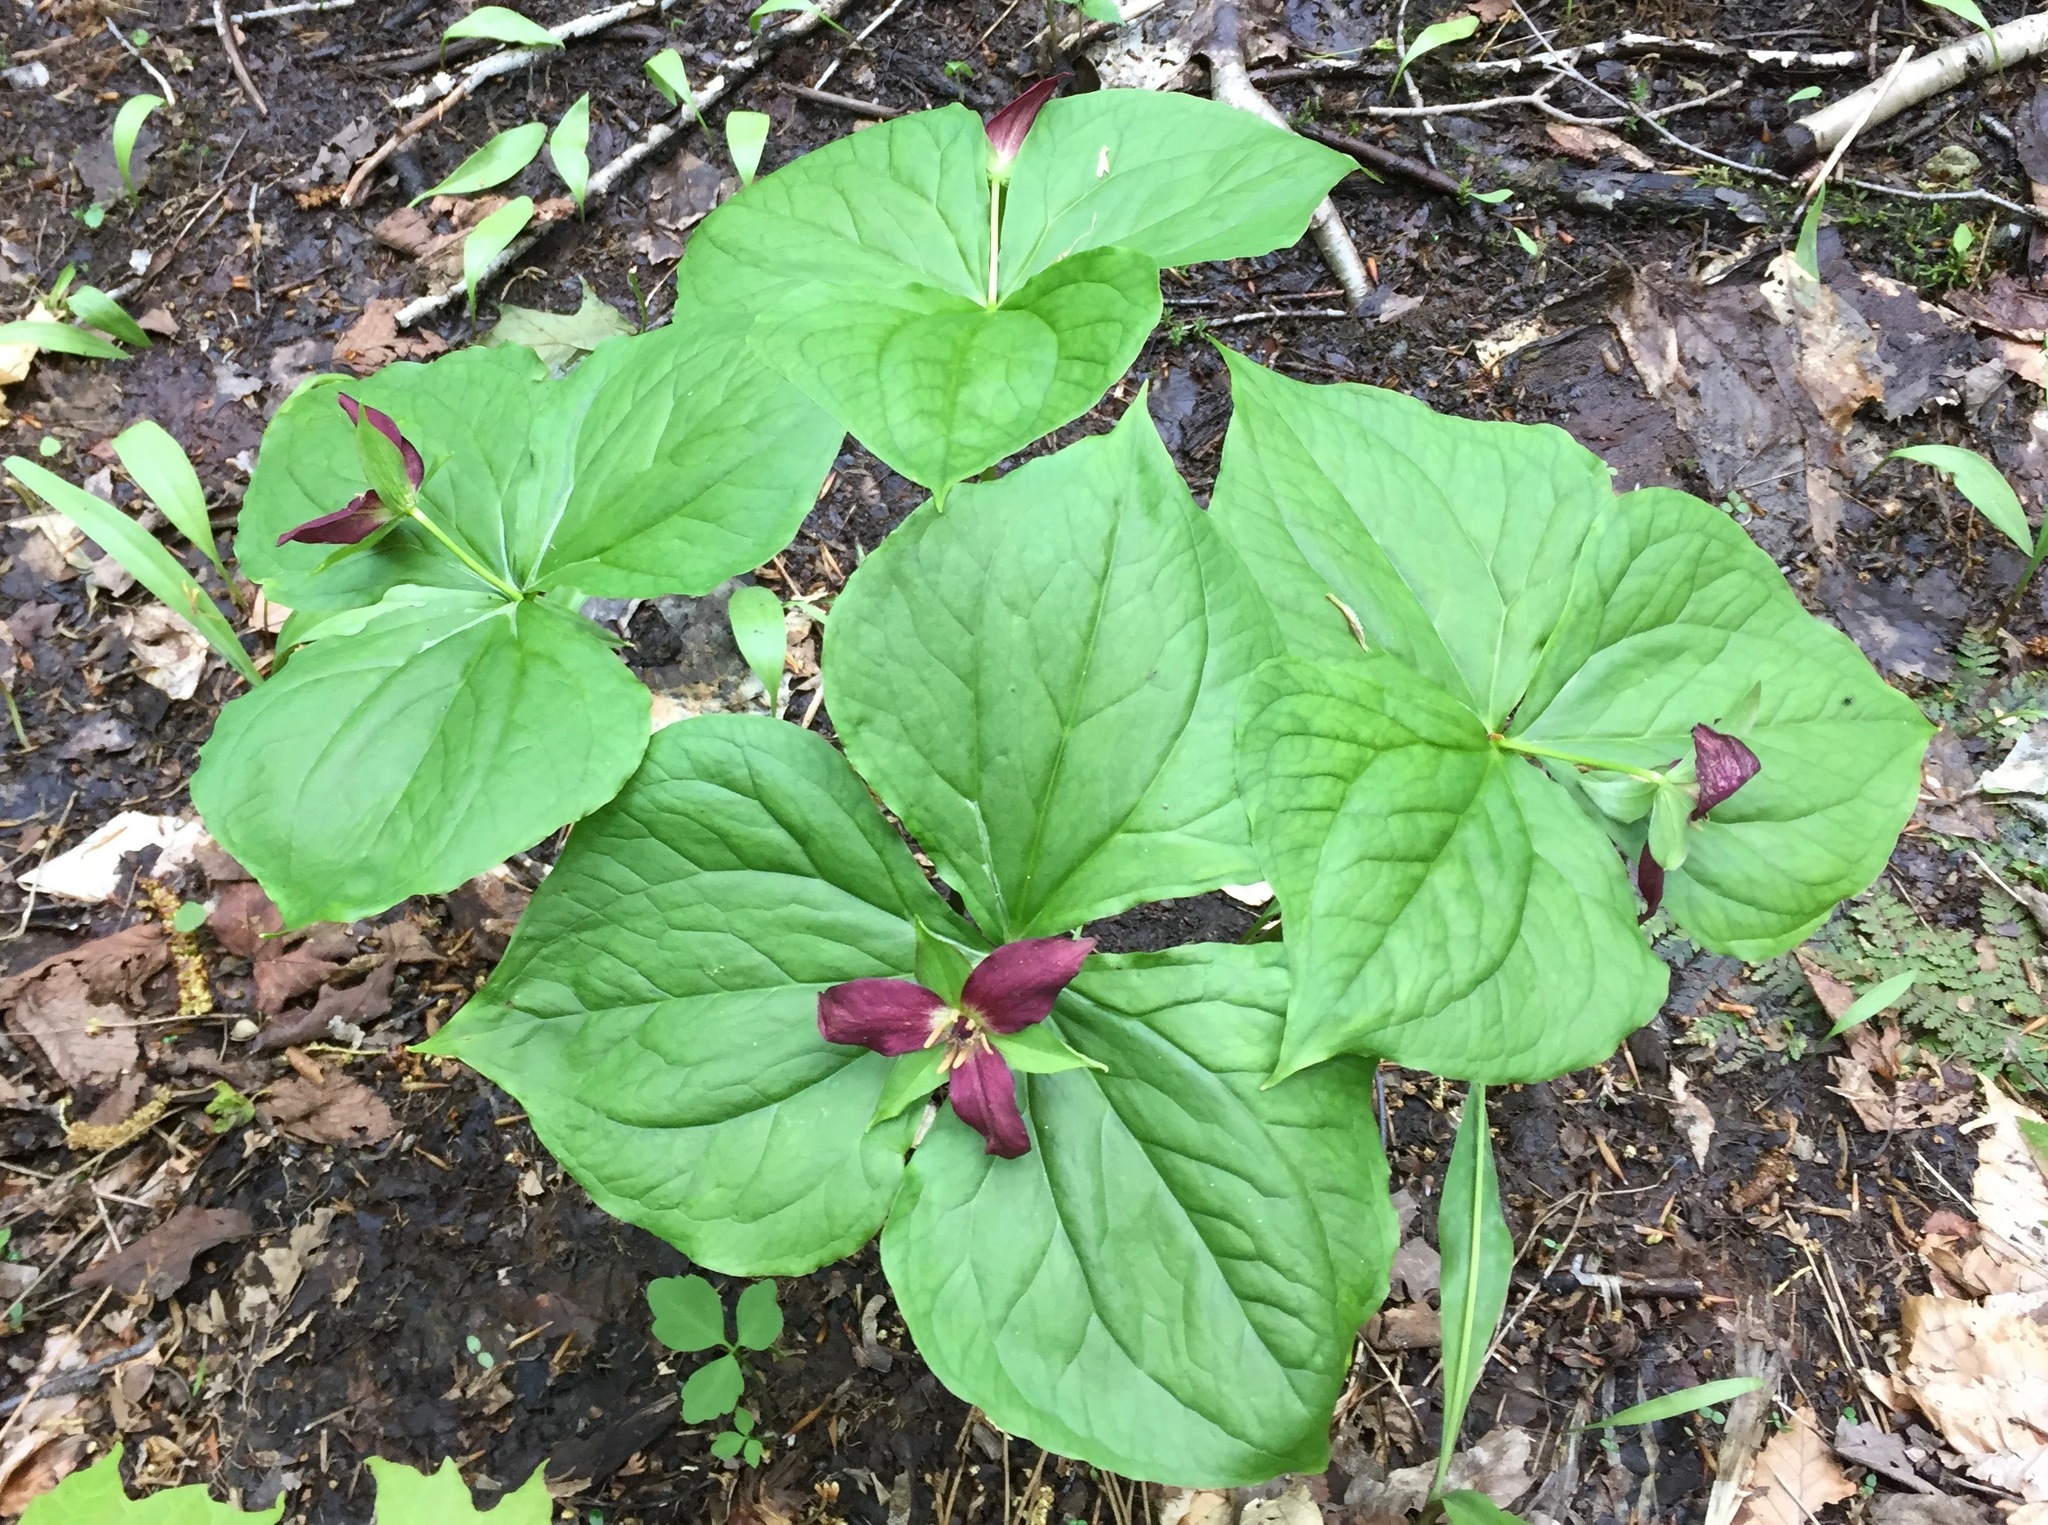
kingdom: Plantae
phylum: Tracheophyta
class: Liliopsida
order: Liliales
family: Melanthiaceae
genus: Trillium
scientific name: Trillium erectum
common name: Purple trillium
